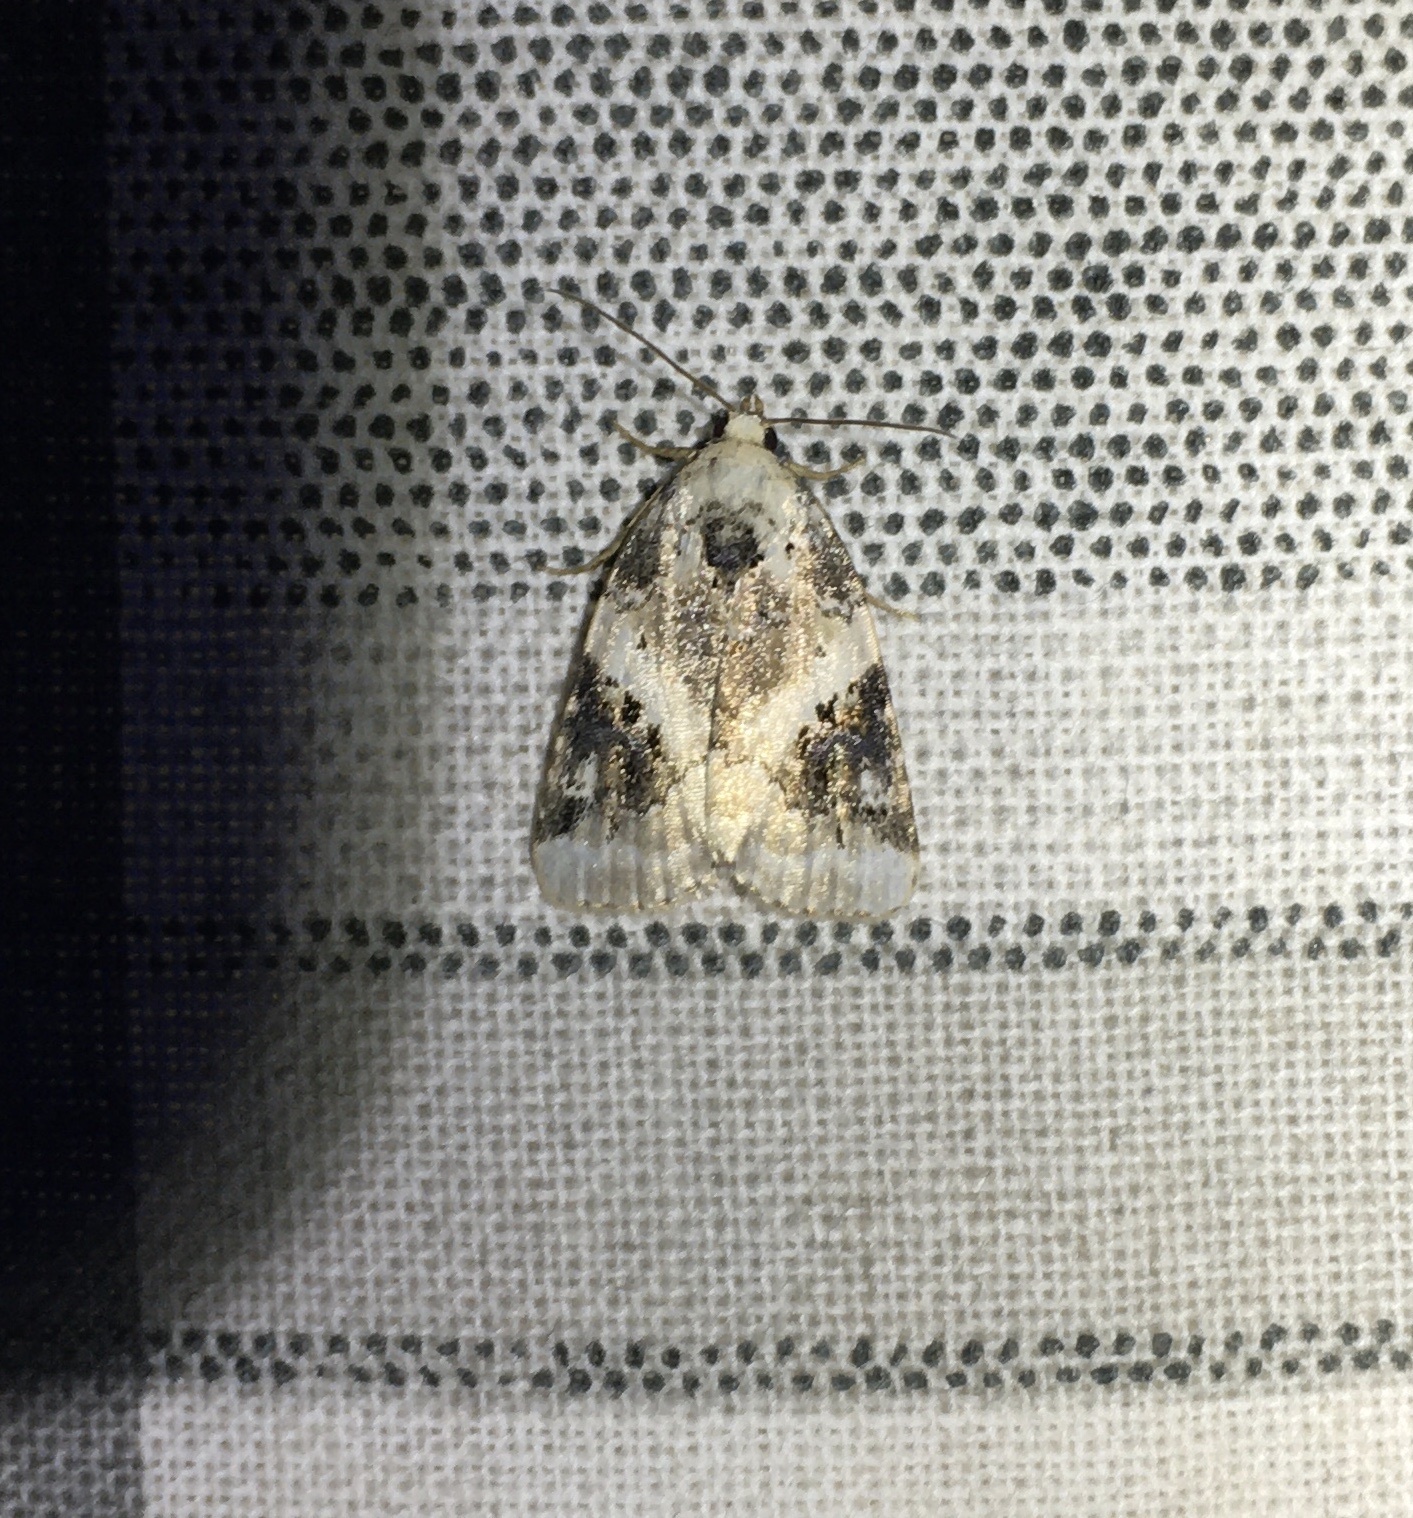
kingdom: Animalia
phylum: Arthropoda
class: Insecta
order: Lepidoptera
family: Noctuidae
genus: Pseudeustrotia
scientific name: Pseudeustrotia candidula
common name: Shining marbled
